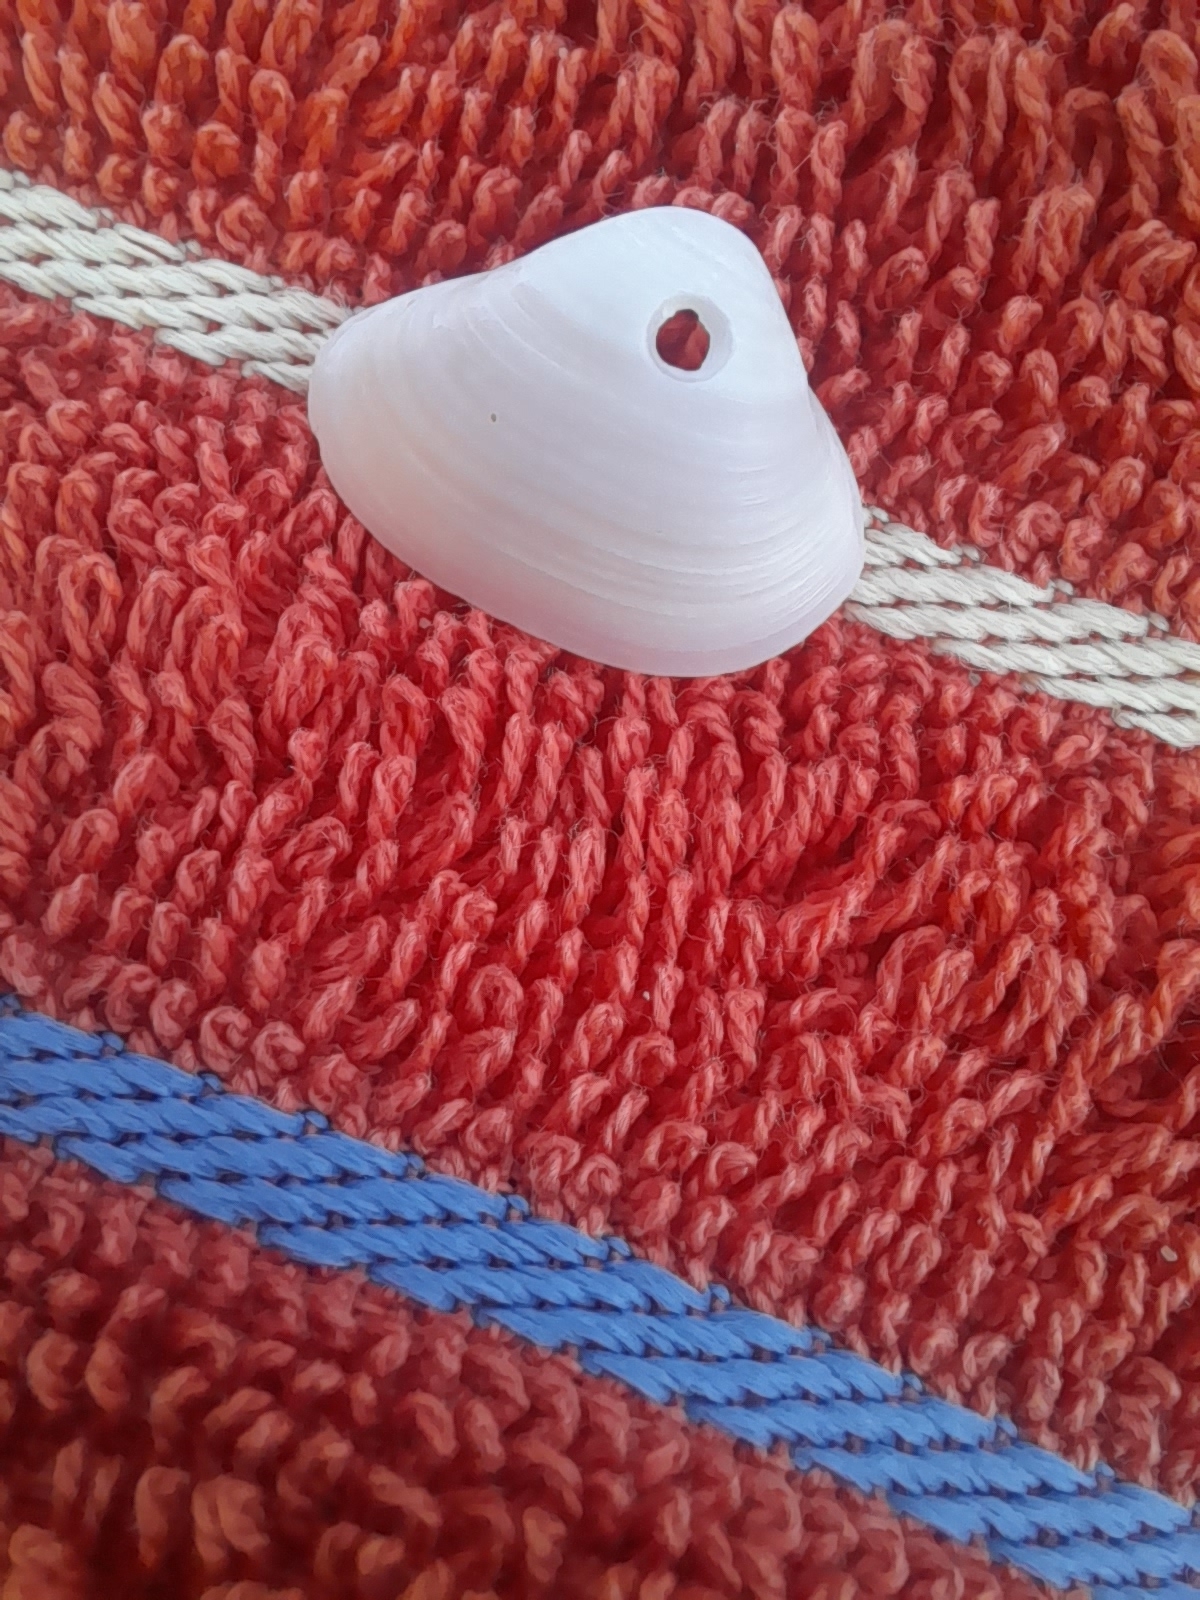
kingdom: Animalia
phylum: Mollusca
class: Bivalvia
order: Venerida
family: Mactridae
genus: Spisula
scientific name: Spisula subtruncata
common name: Cut trough shell
